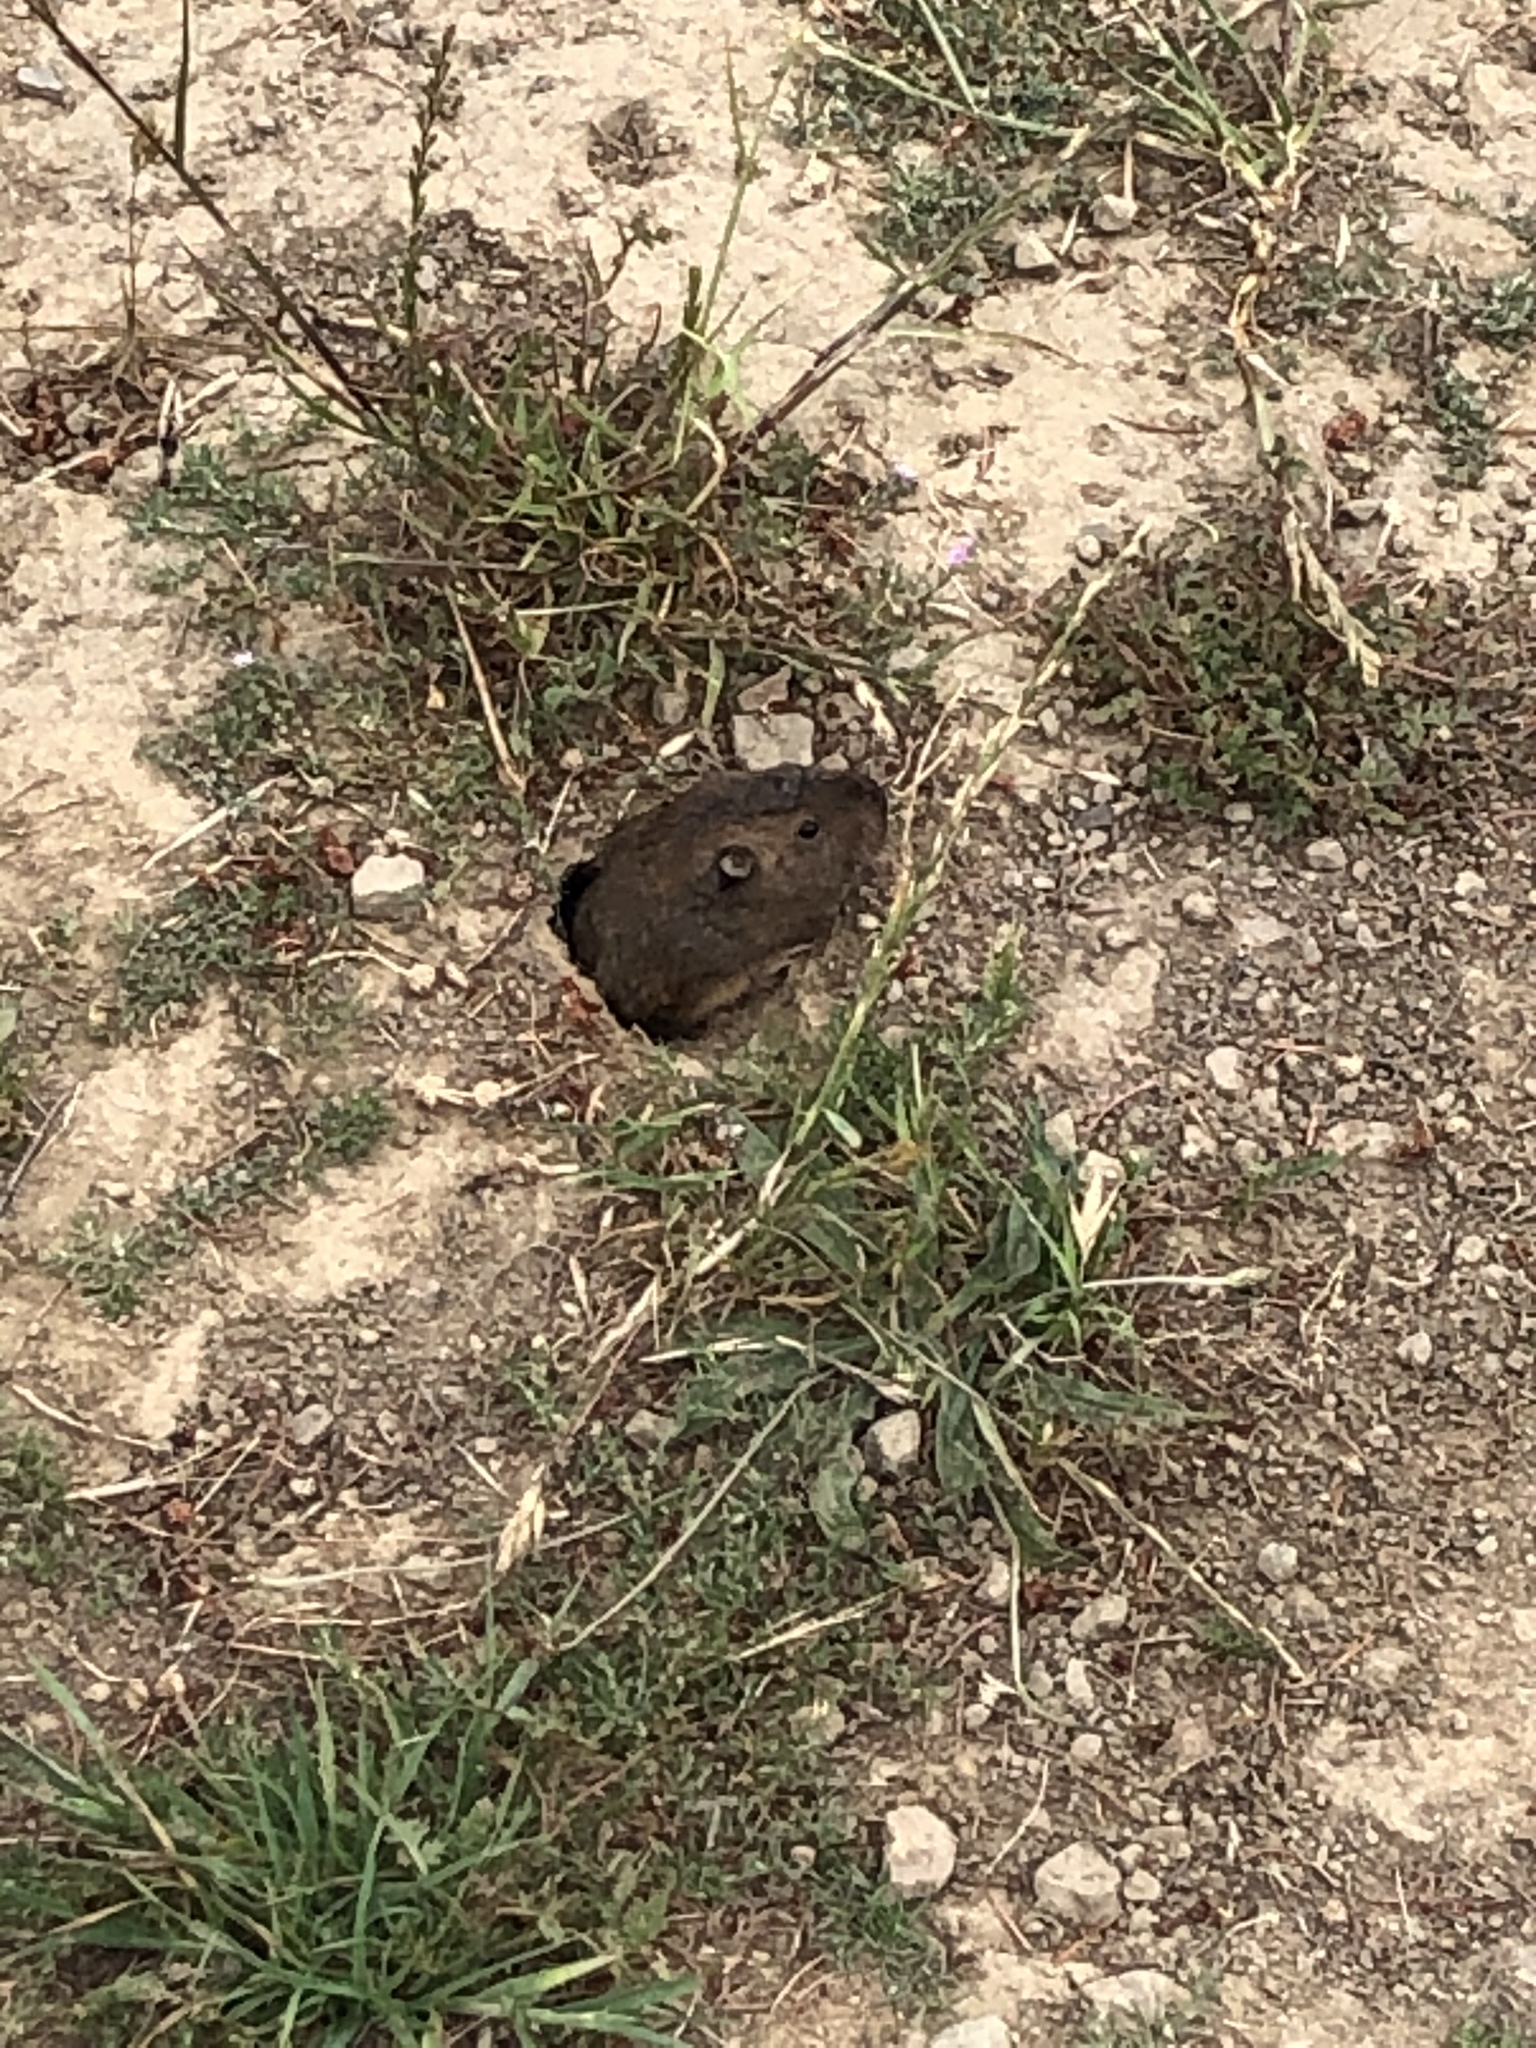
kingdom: Animalia
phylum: Chordata
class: Mammalia
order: Rodentia
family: Geomyidae
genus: Thomomys
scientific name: Thomomys bottae
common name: Botta's pocket gopher
